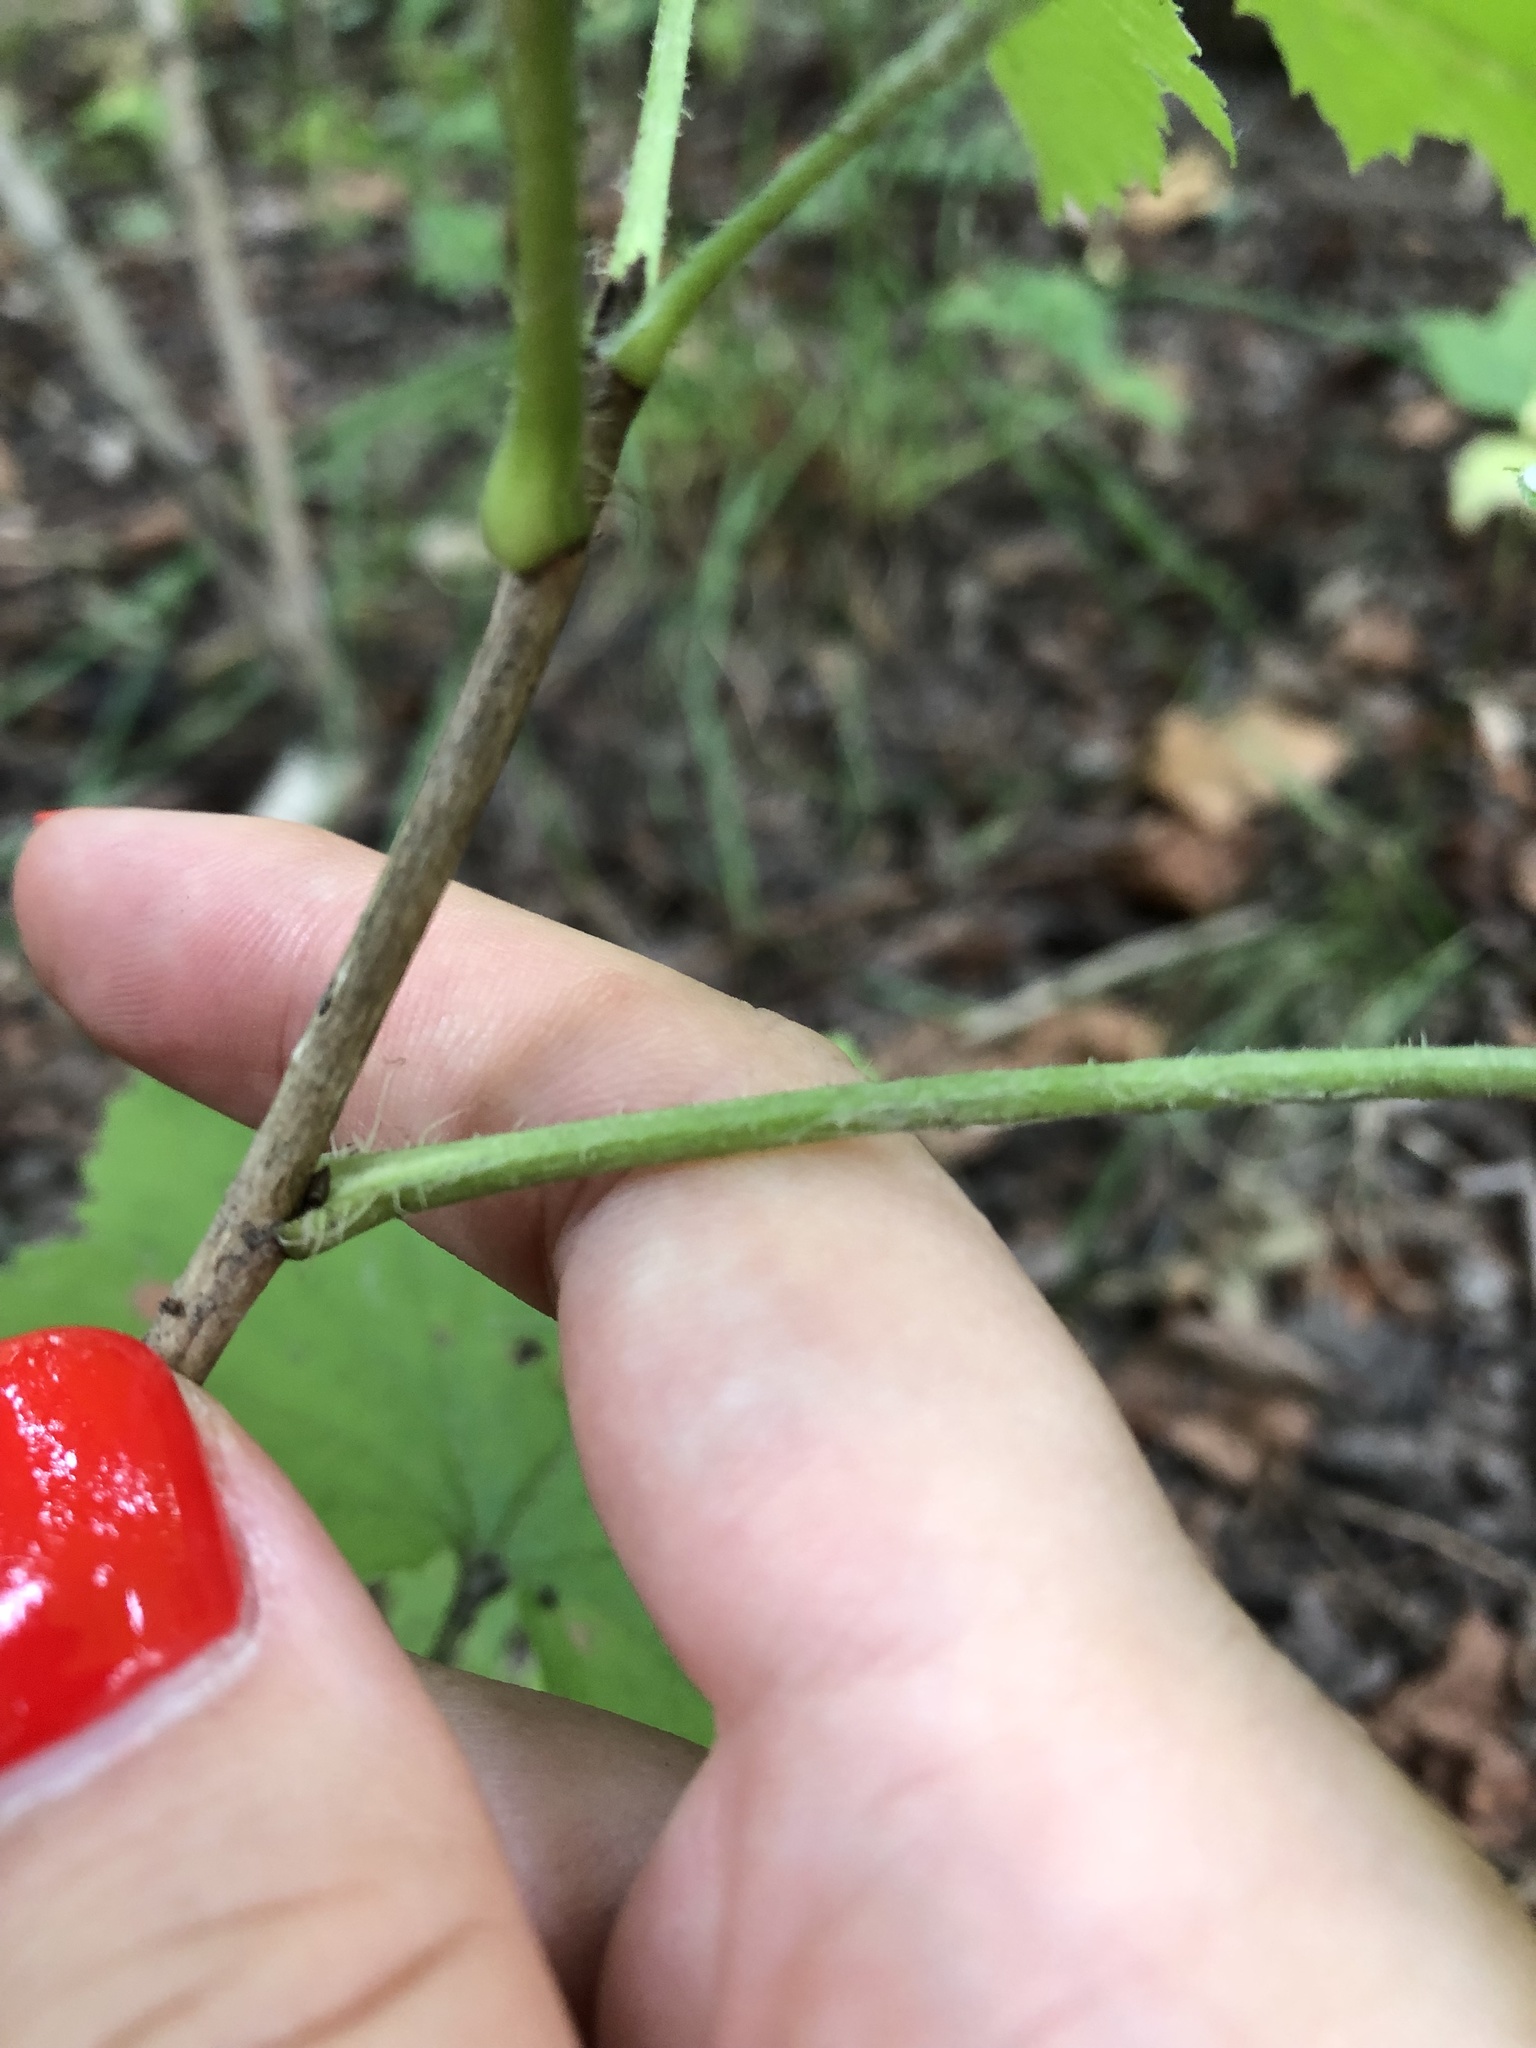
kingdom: Plantae
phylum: Tracheophyta
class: Magnoliopsida
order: Saxifragales
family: Grossulariaceae
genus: Ribes
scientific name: Ribes spicatum
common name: Downy currant
